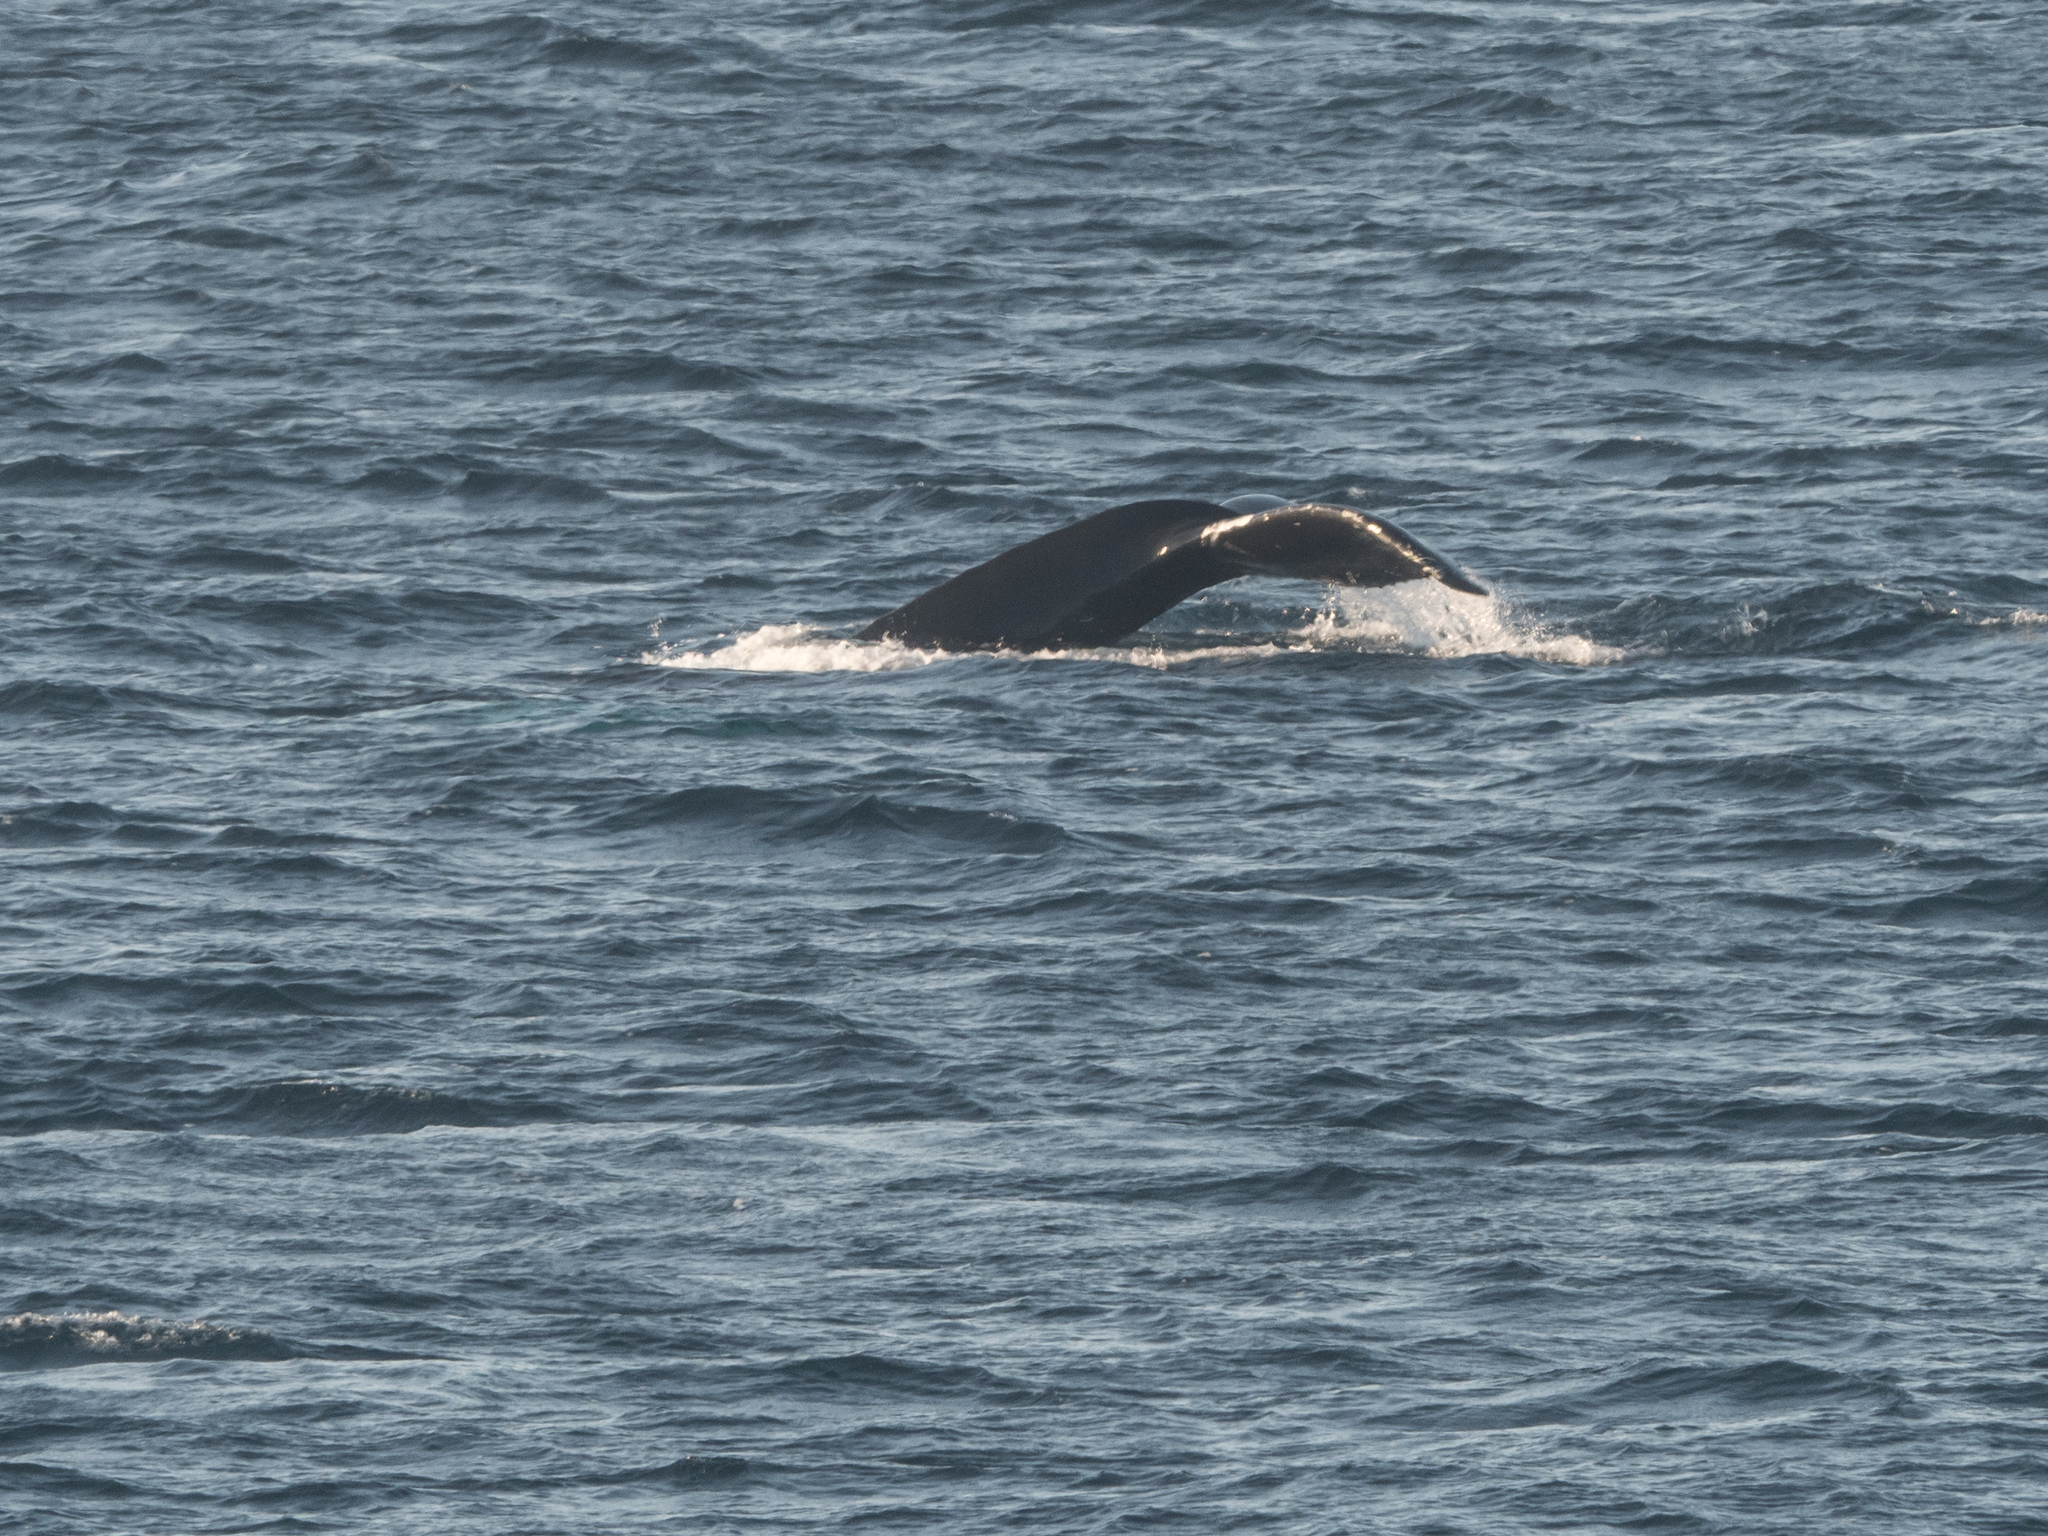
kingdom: Animalia
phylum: Chordata
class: Mammalia
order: Cetacea
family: Balaenopteridae
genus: Megaptera
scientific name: Megaptera novaeangliae
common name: Humpback whale
